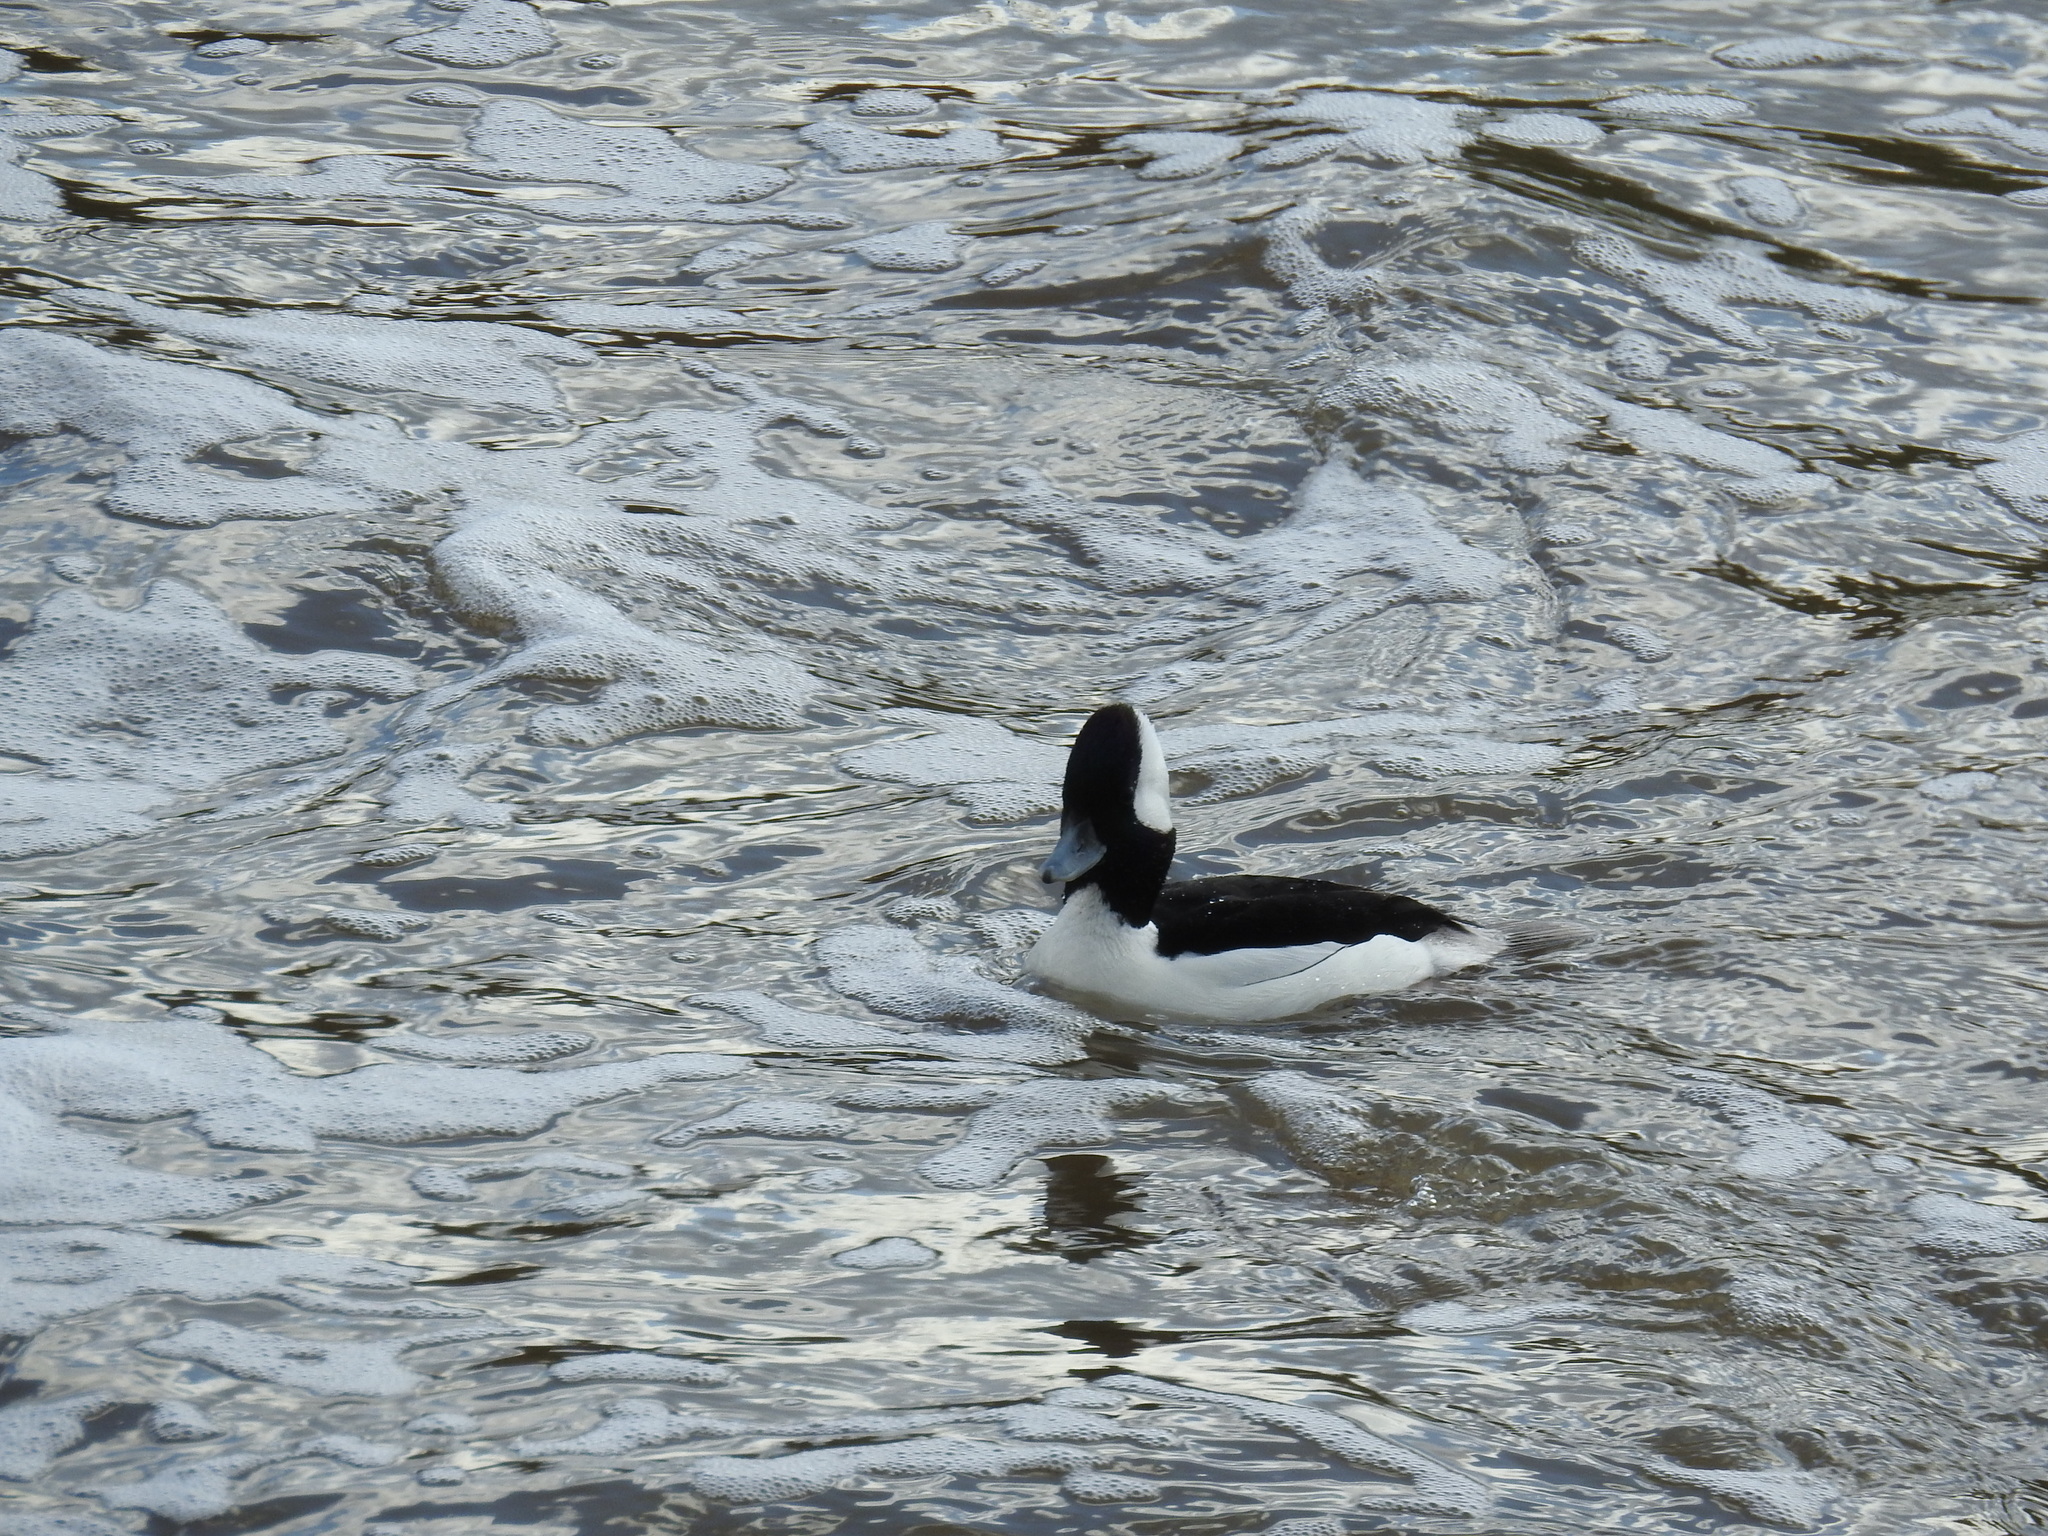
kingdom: Animalia
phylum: Chordata
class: Aves
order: Anseriformes
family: Anatidae
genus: Bucephala
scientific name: Bucephala albeola
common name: Bufflehead
